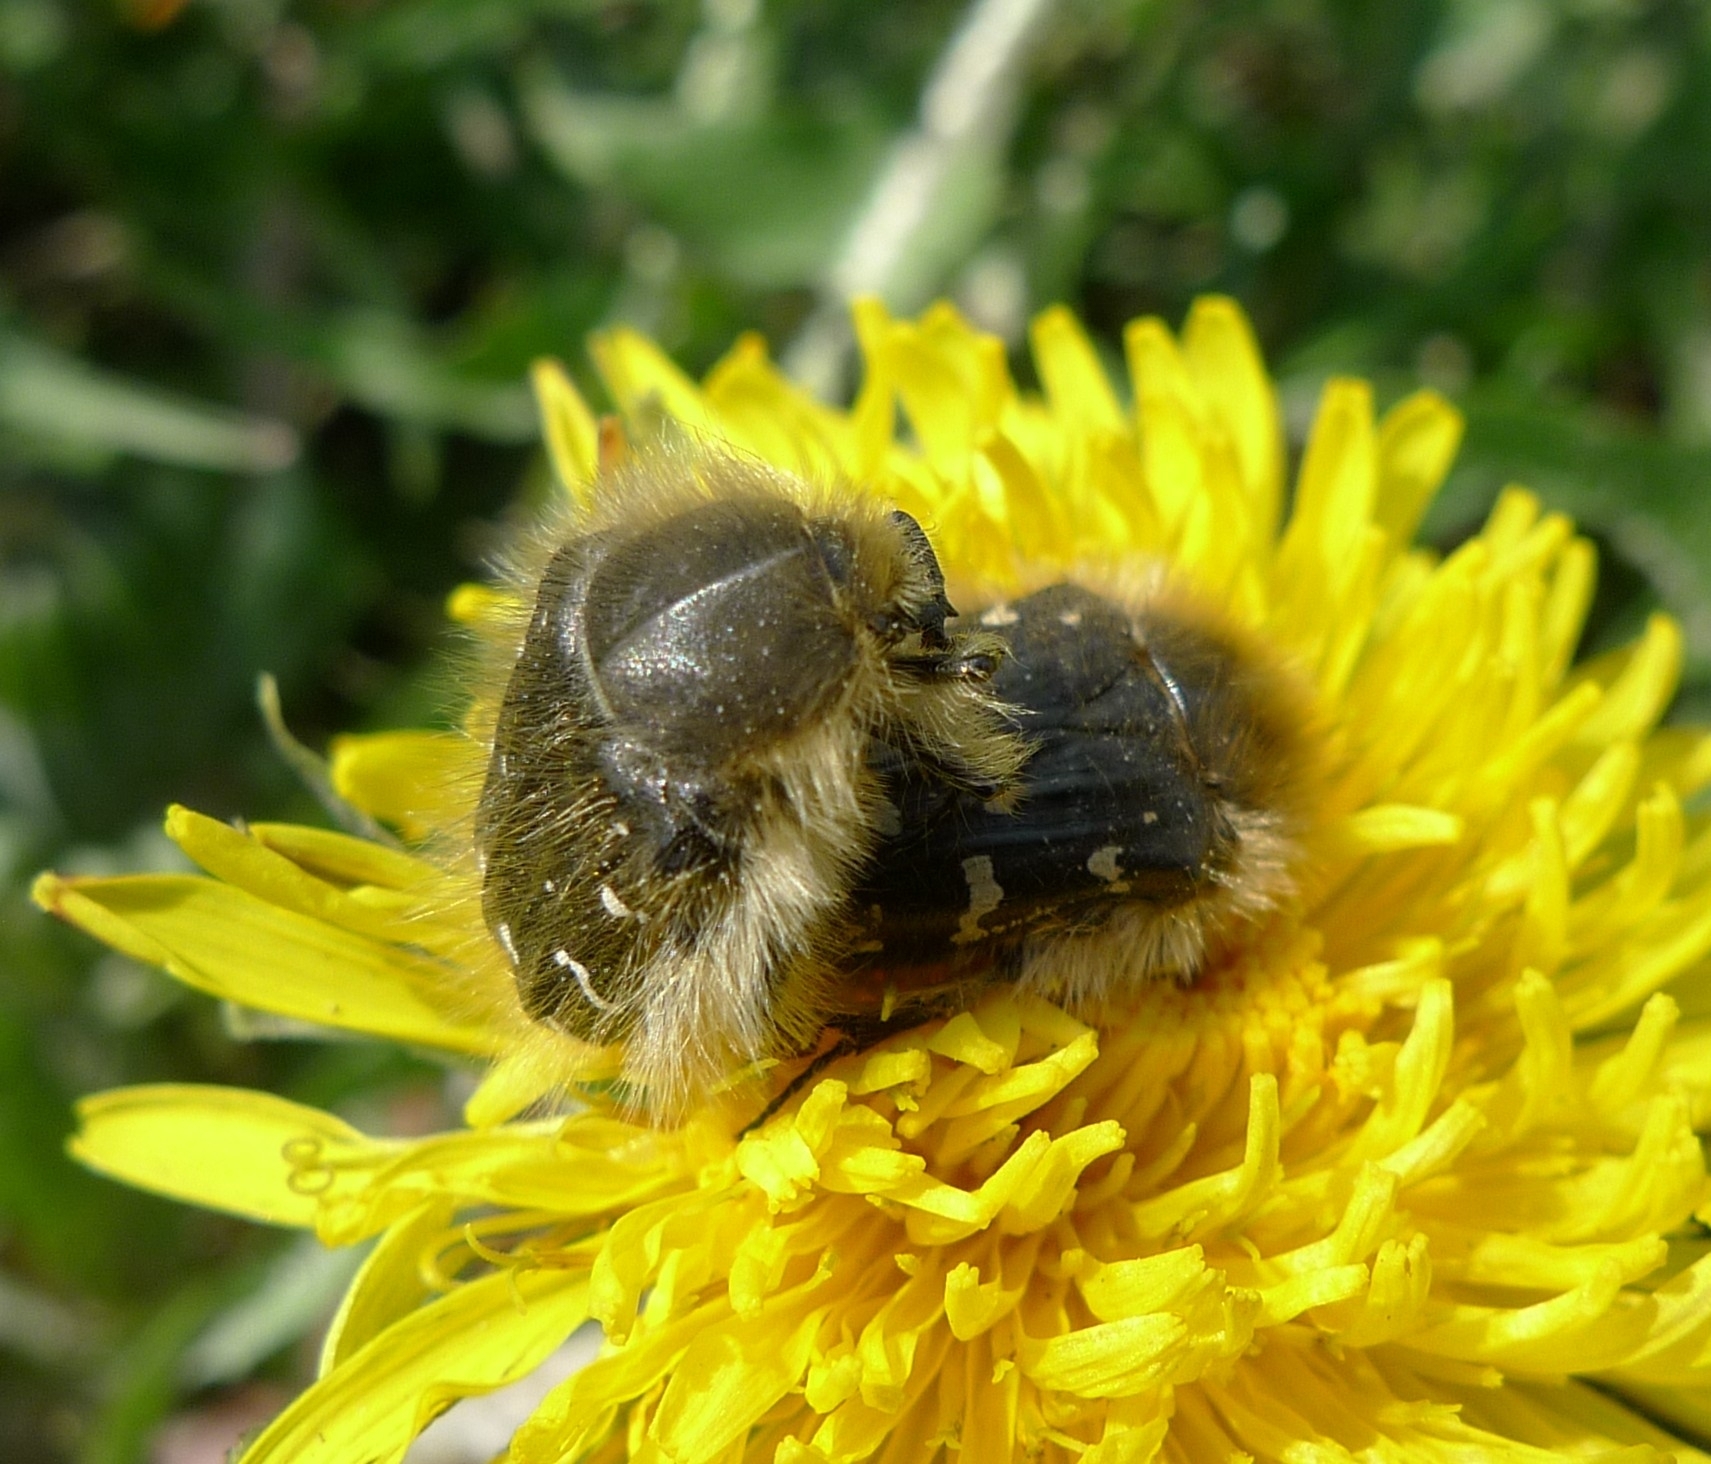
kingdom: Animalia
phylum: Arthropoda
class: Insecta
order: Coleoptera
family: Scarabaeidae
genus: Tropinota
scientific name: Tropinota hirta
